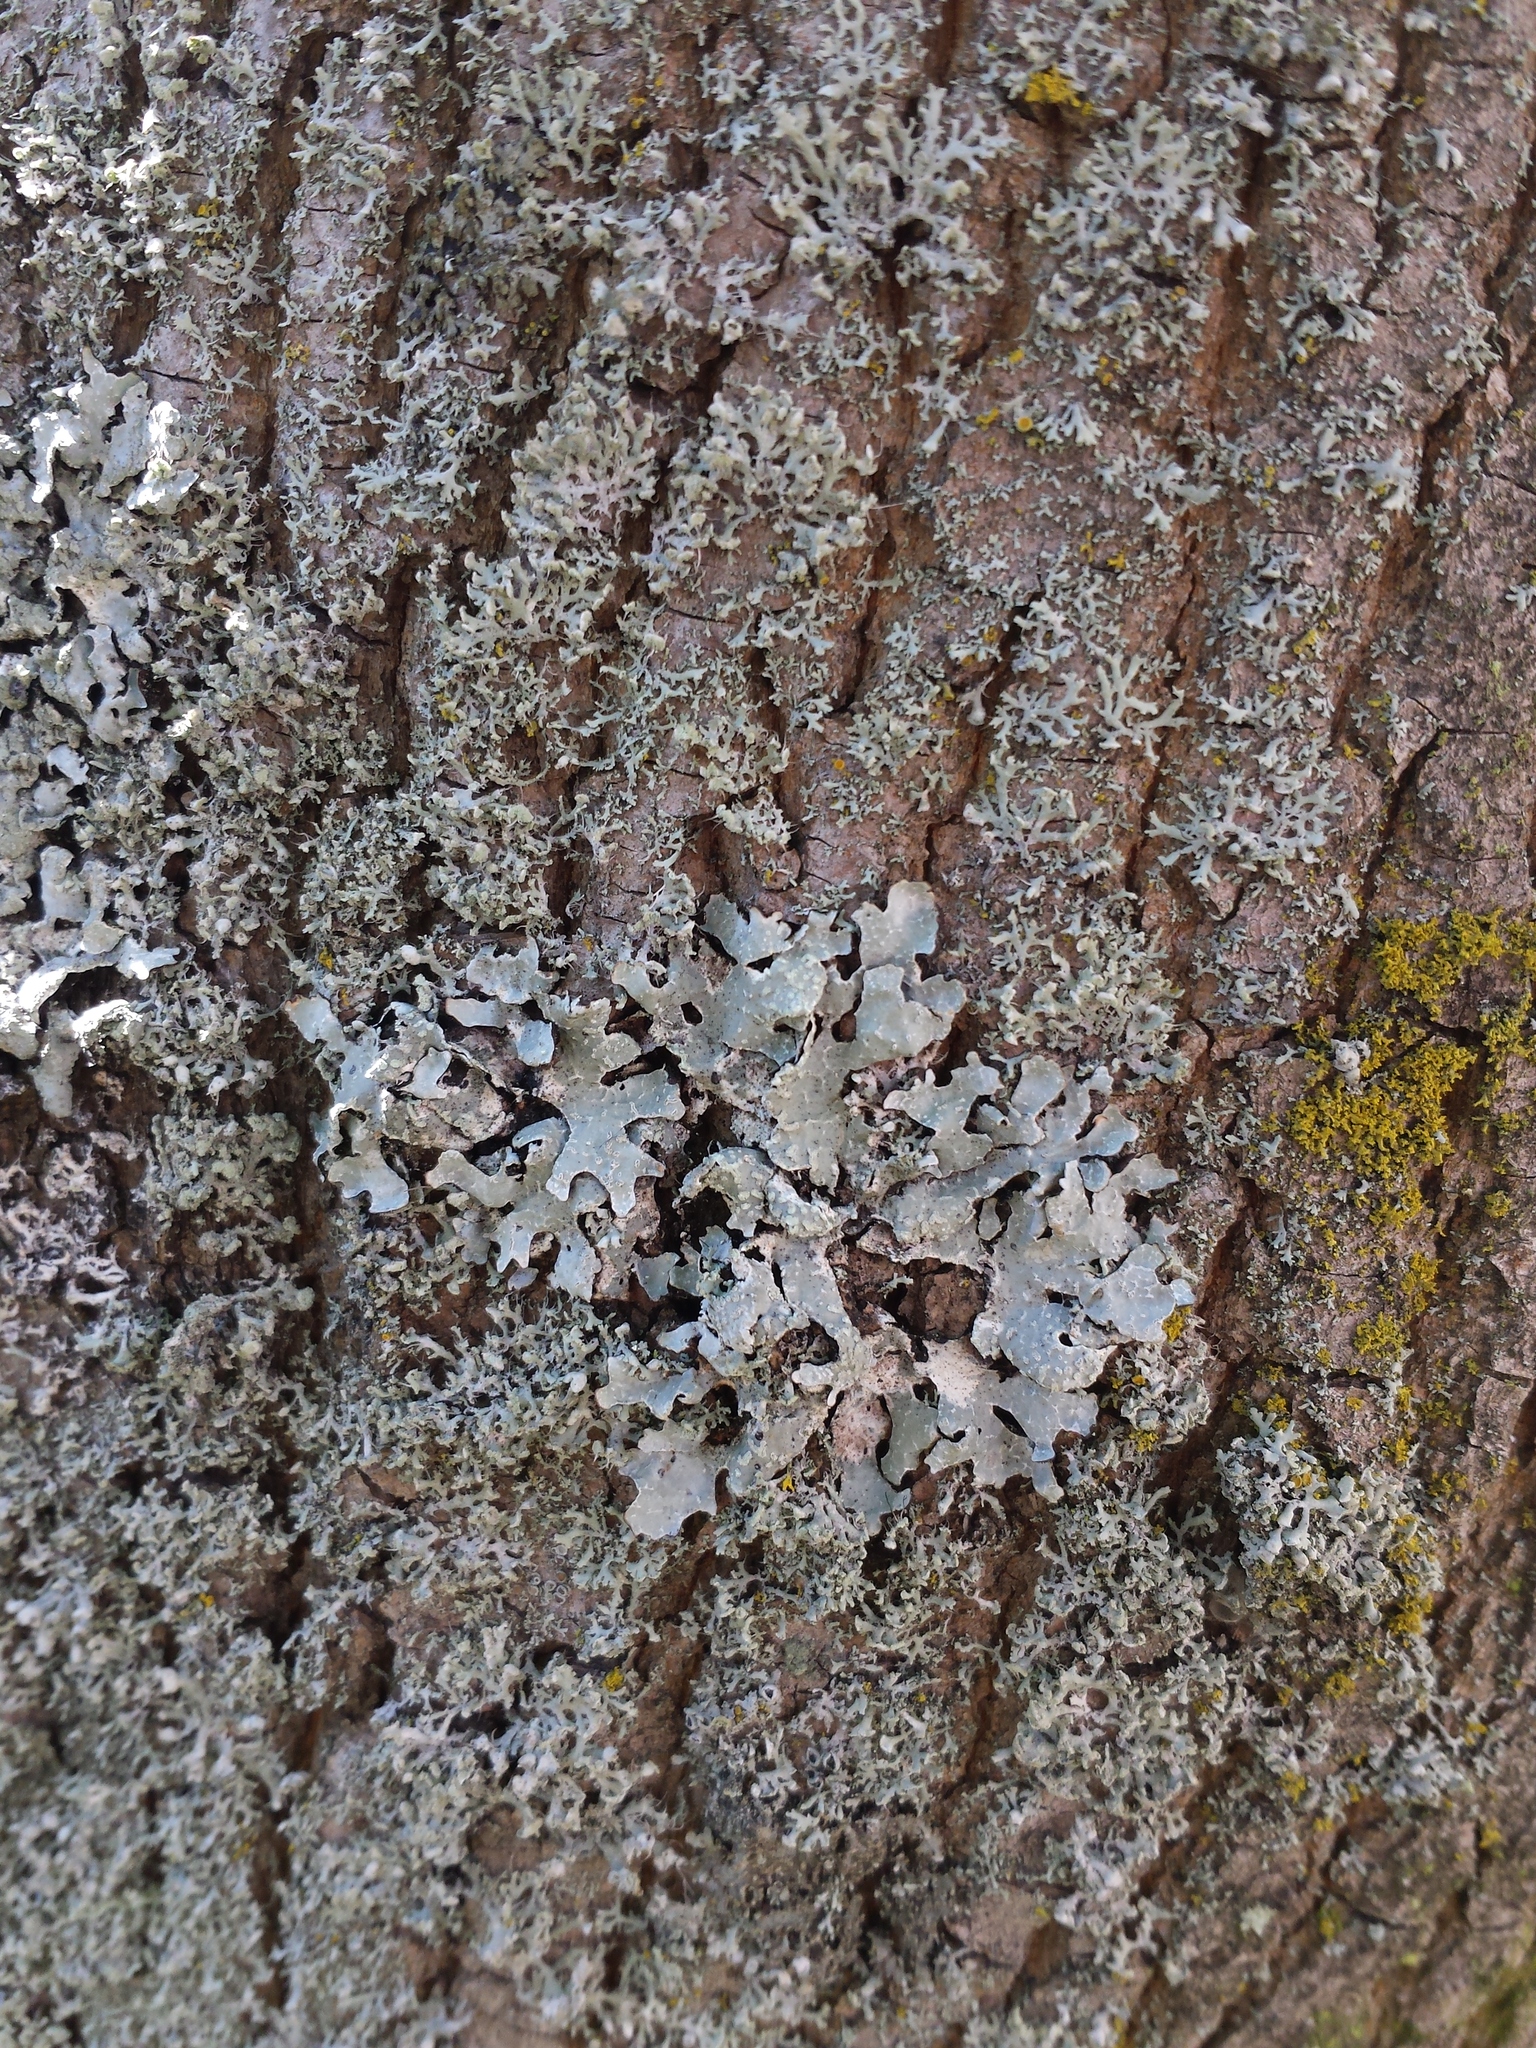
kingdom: Fungi
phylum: Ascomycota
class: Lecanoromycetes
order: Lecanorales
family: Parmeliaceae
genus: Parmelia
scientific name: Parmelia sulcata
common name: Netted shield lichen
